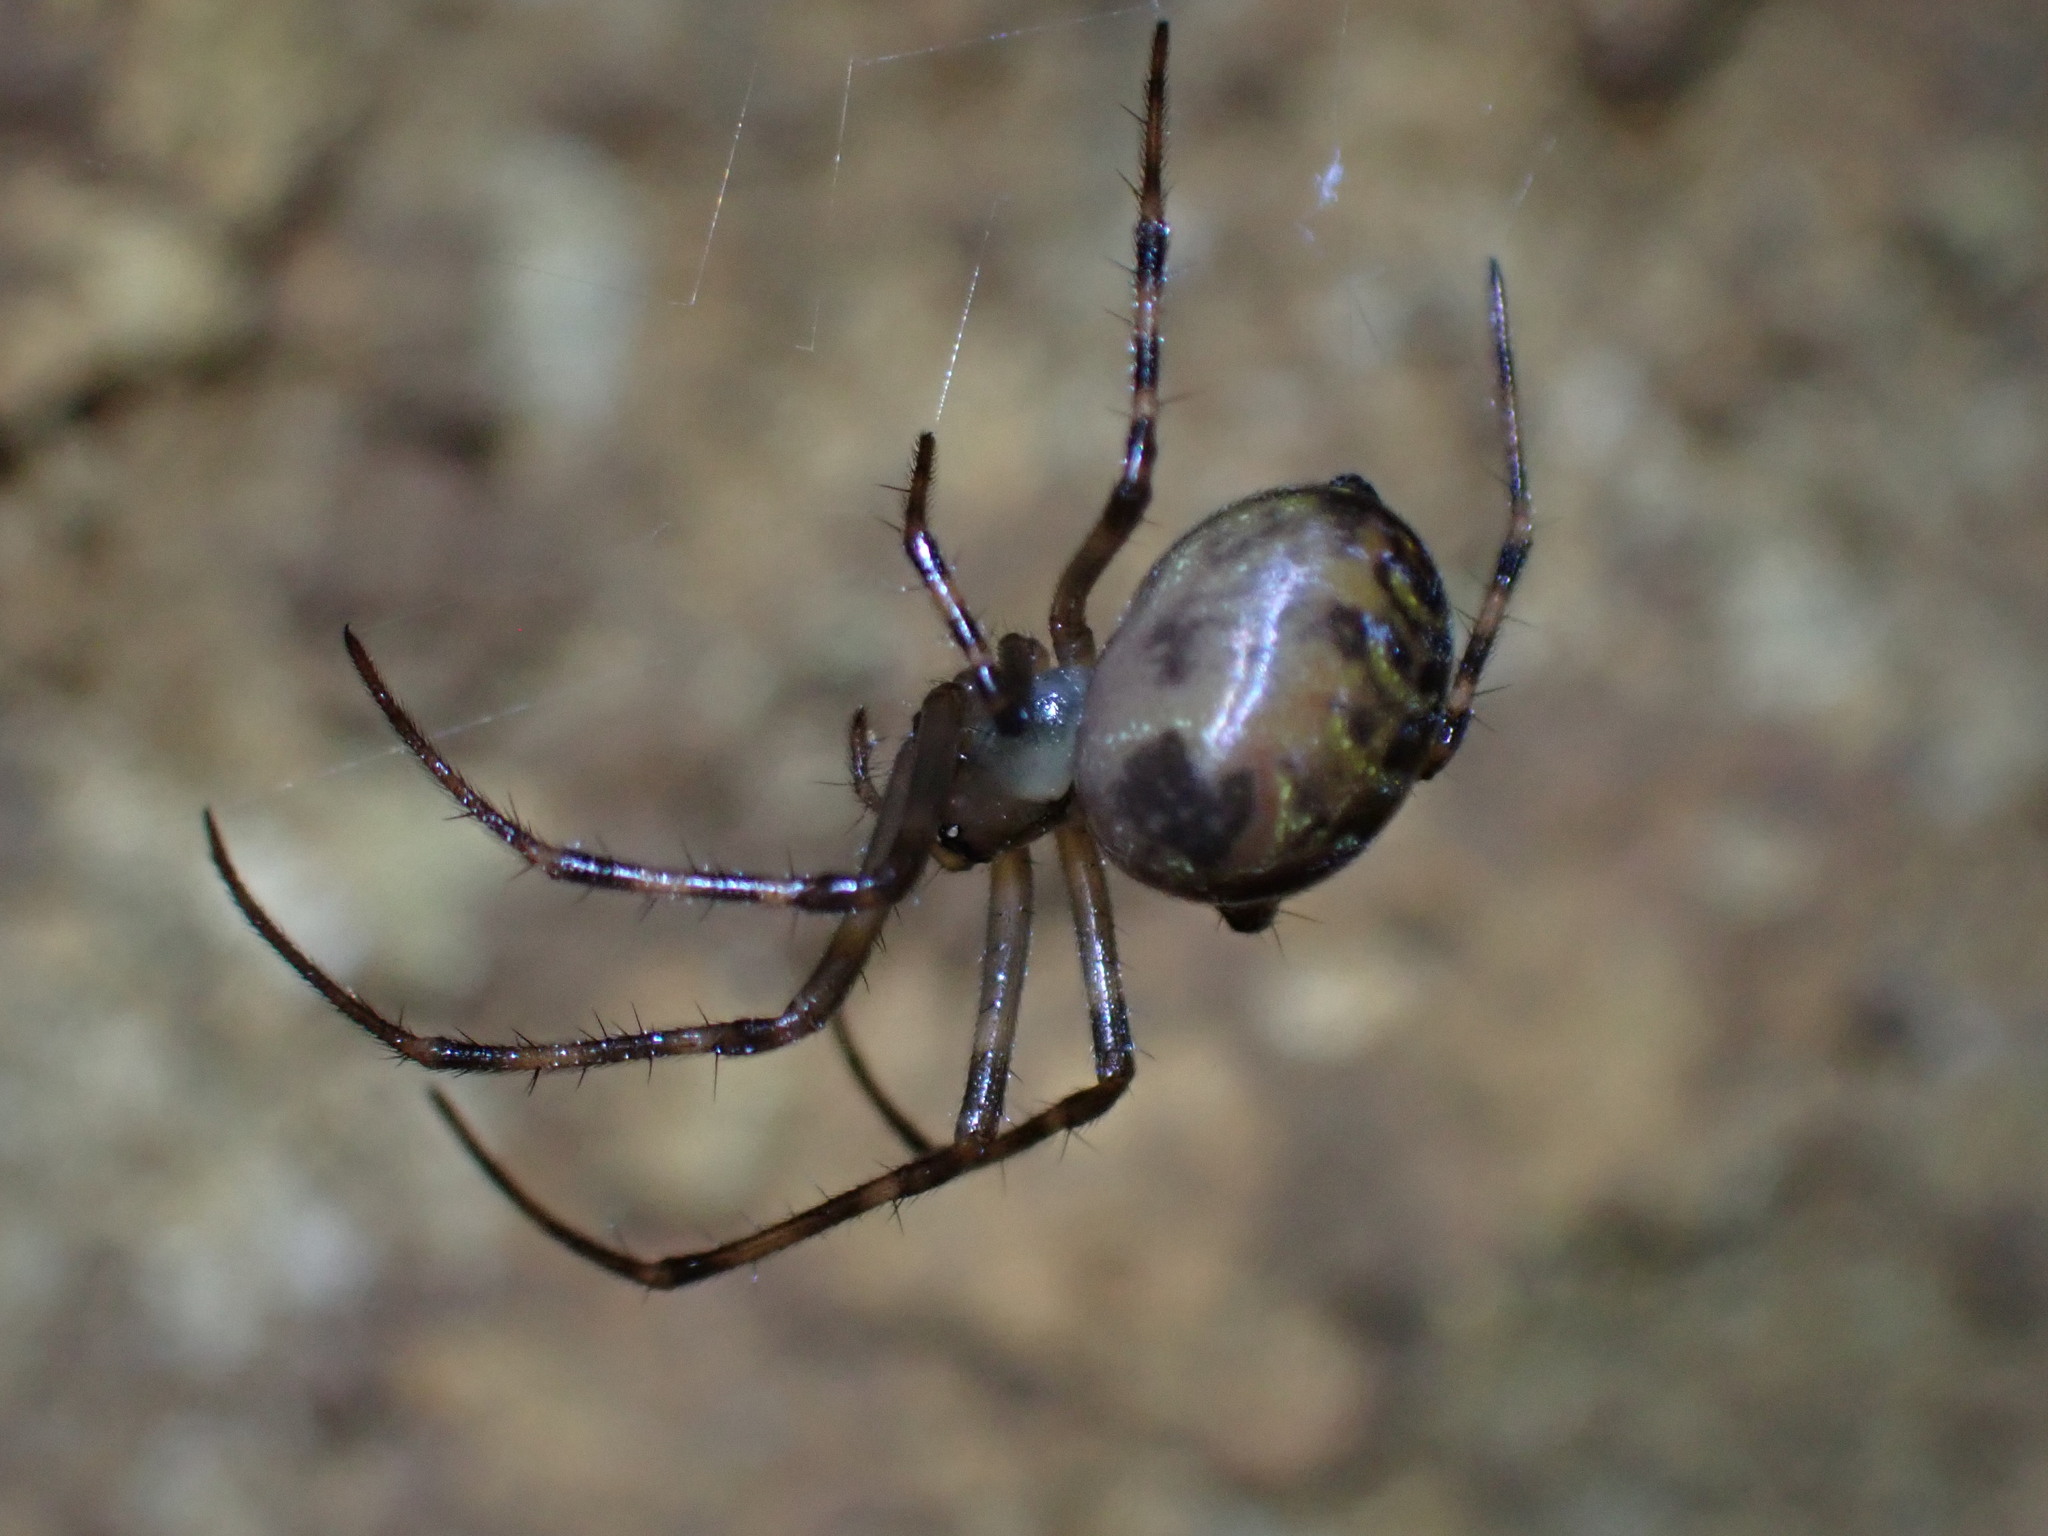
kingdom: Animalia
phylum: Arthropoda
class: Arachnida
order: Araneae
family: Tetragnathidae
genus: Meta
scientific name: Meta menardi
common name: Cave spider
